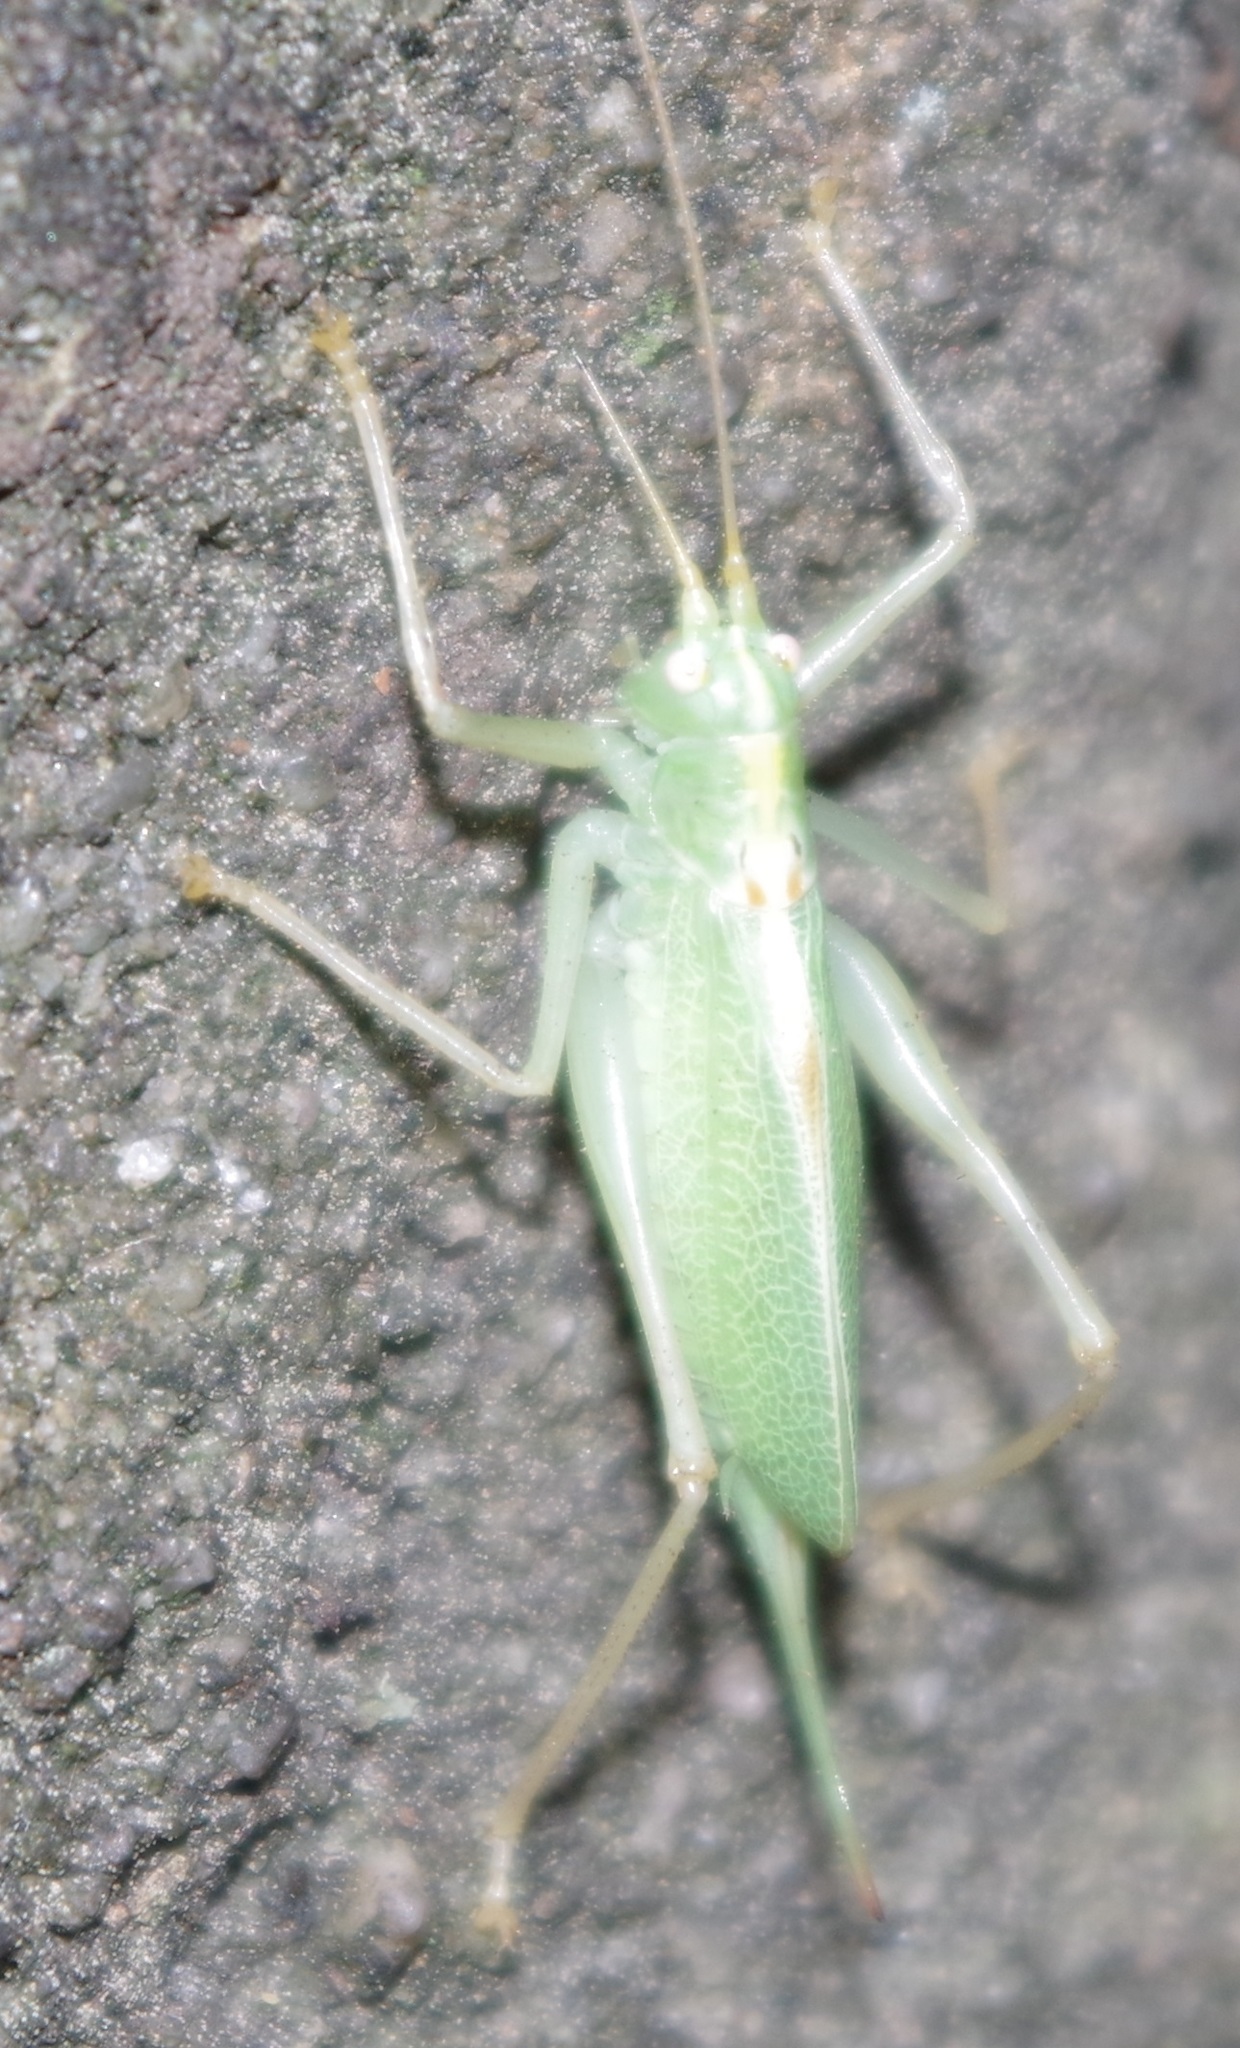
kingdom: Animalia
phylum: Arthropoda
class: Insecta
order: Orthoptera
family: Tettigoniidae
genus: Meconema
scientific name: Meconema thalassinum
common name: Oak bush-cricket
